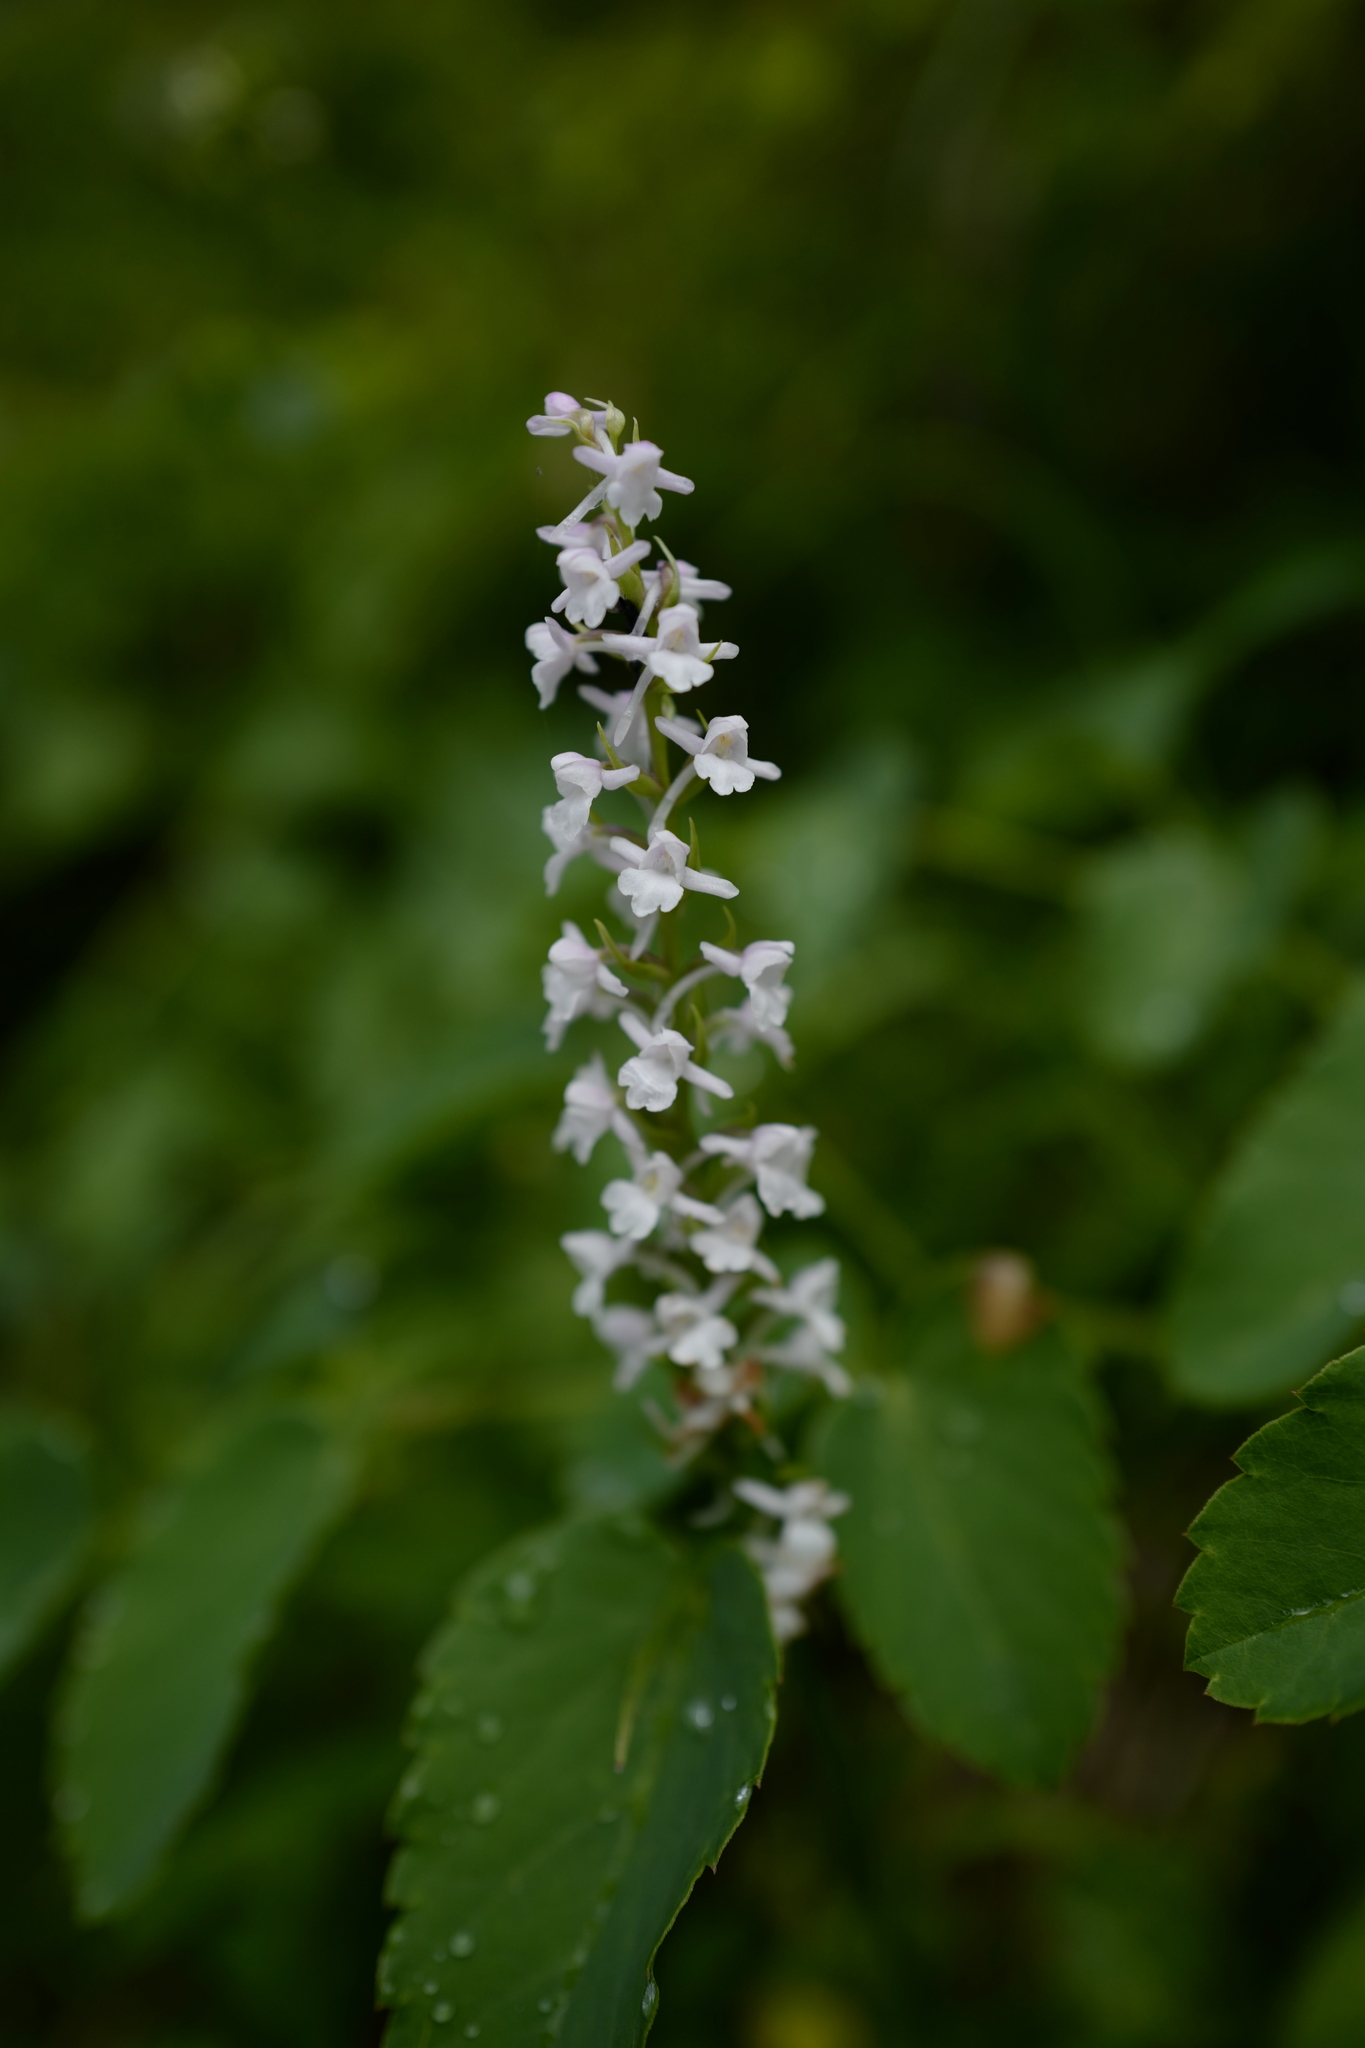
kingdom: Plantae
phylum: Tracheophyta
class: Liliopsida
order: Asparagales
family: Orchidaceae
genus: Gymnadenia
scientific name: Gymnadenia conopsea
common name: Fragrant orchid
